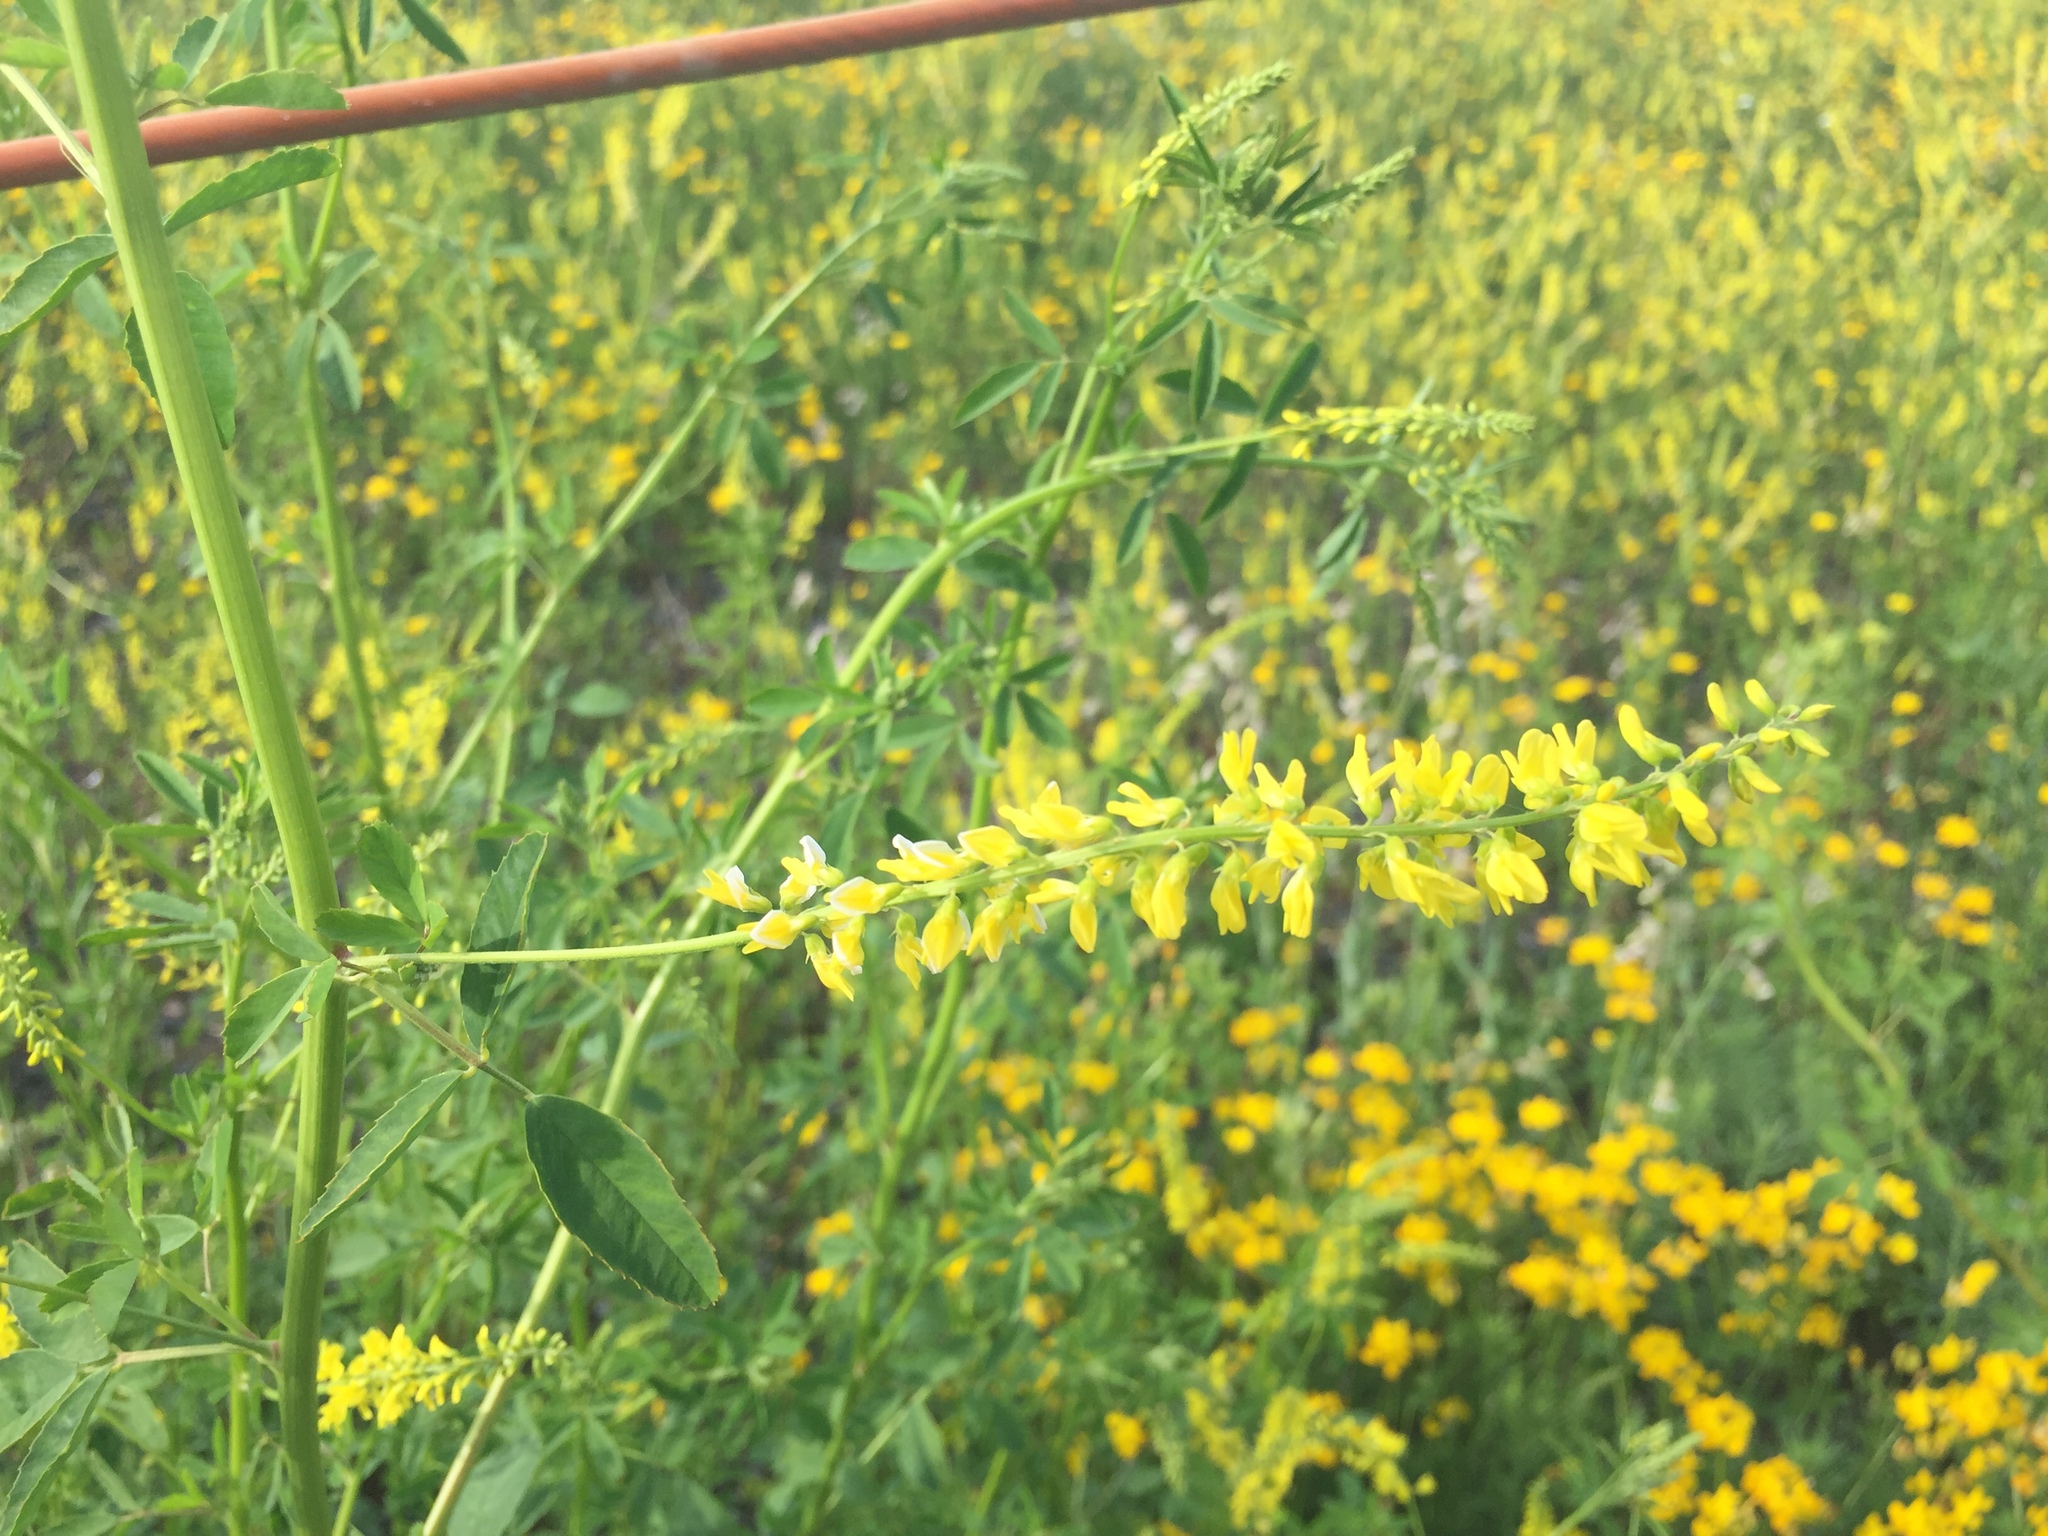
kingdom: Plantae
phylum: Tracheophyta
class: Magnoliopsida
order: Fabales
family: Fabaceae
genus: Melilotus
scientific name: Melilotus officinalis
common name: Sweetclover
